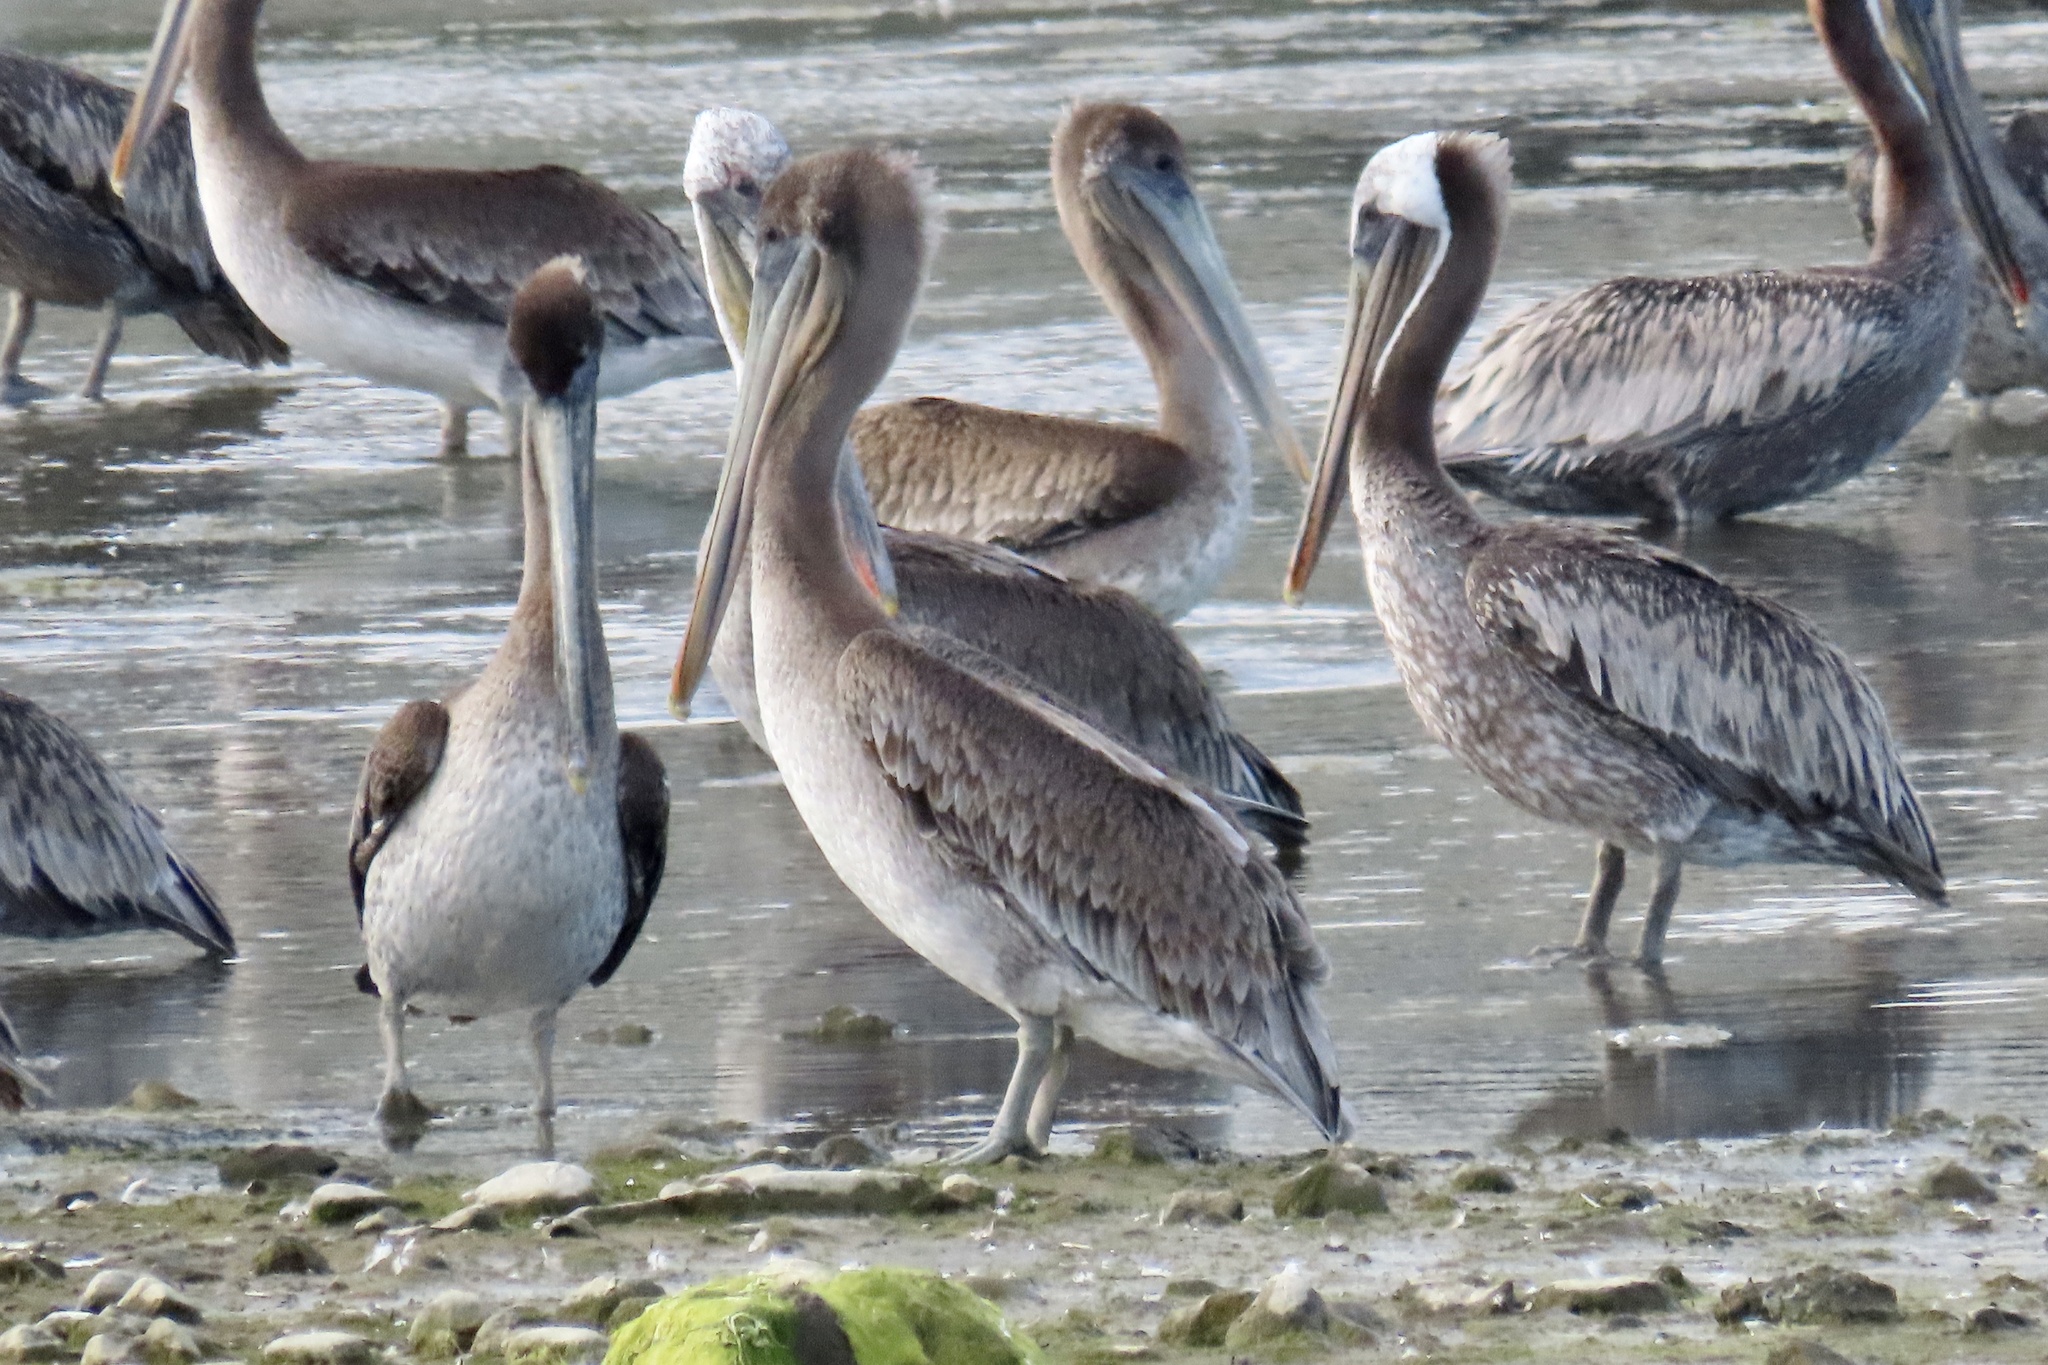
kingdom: Animalia
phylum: Chordata
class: Aves
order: Pelecaniformes
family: Pelecanidae
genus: Pelecanus
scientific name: Pelecanus occidentalis
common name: Brown pelican
